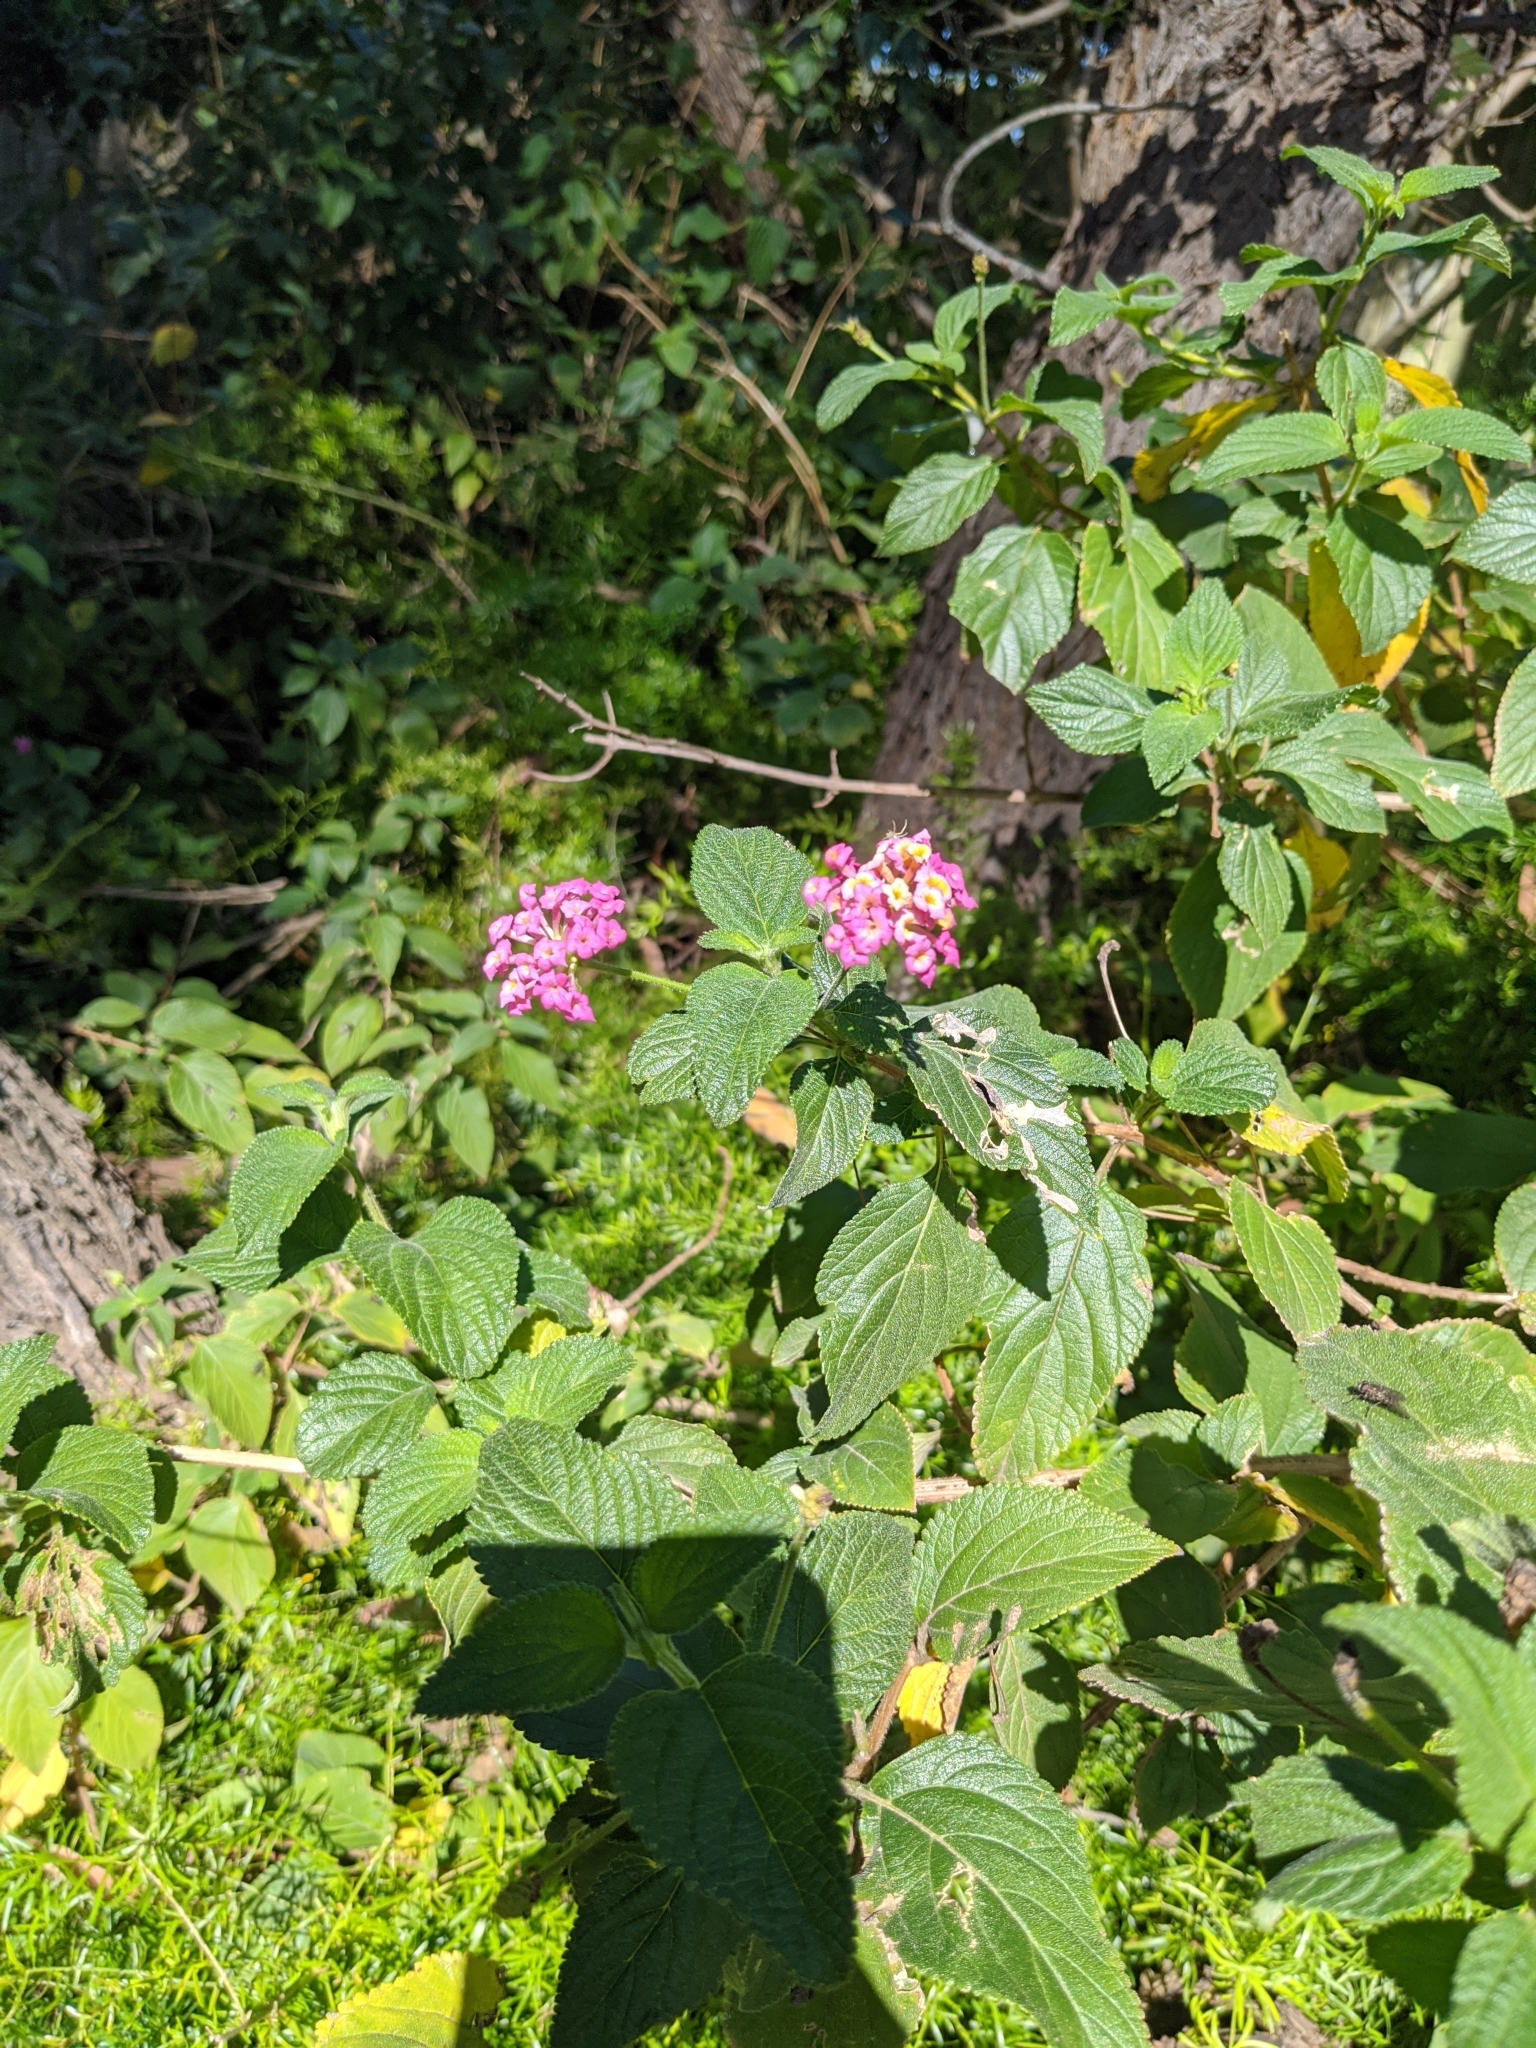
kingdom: Plantae
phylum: Tracheophyta
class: Magnoliopsida
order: Lamiales
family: Verbenaceae
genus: Lantana
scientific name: Lantana camara
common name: Lantana
